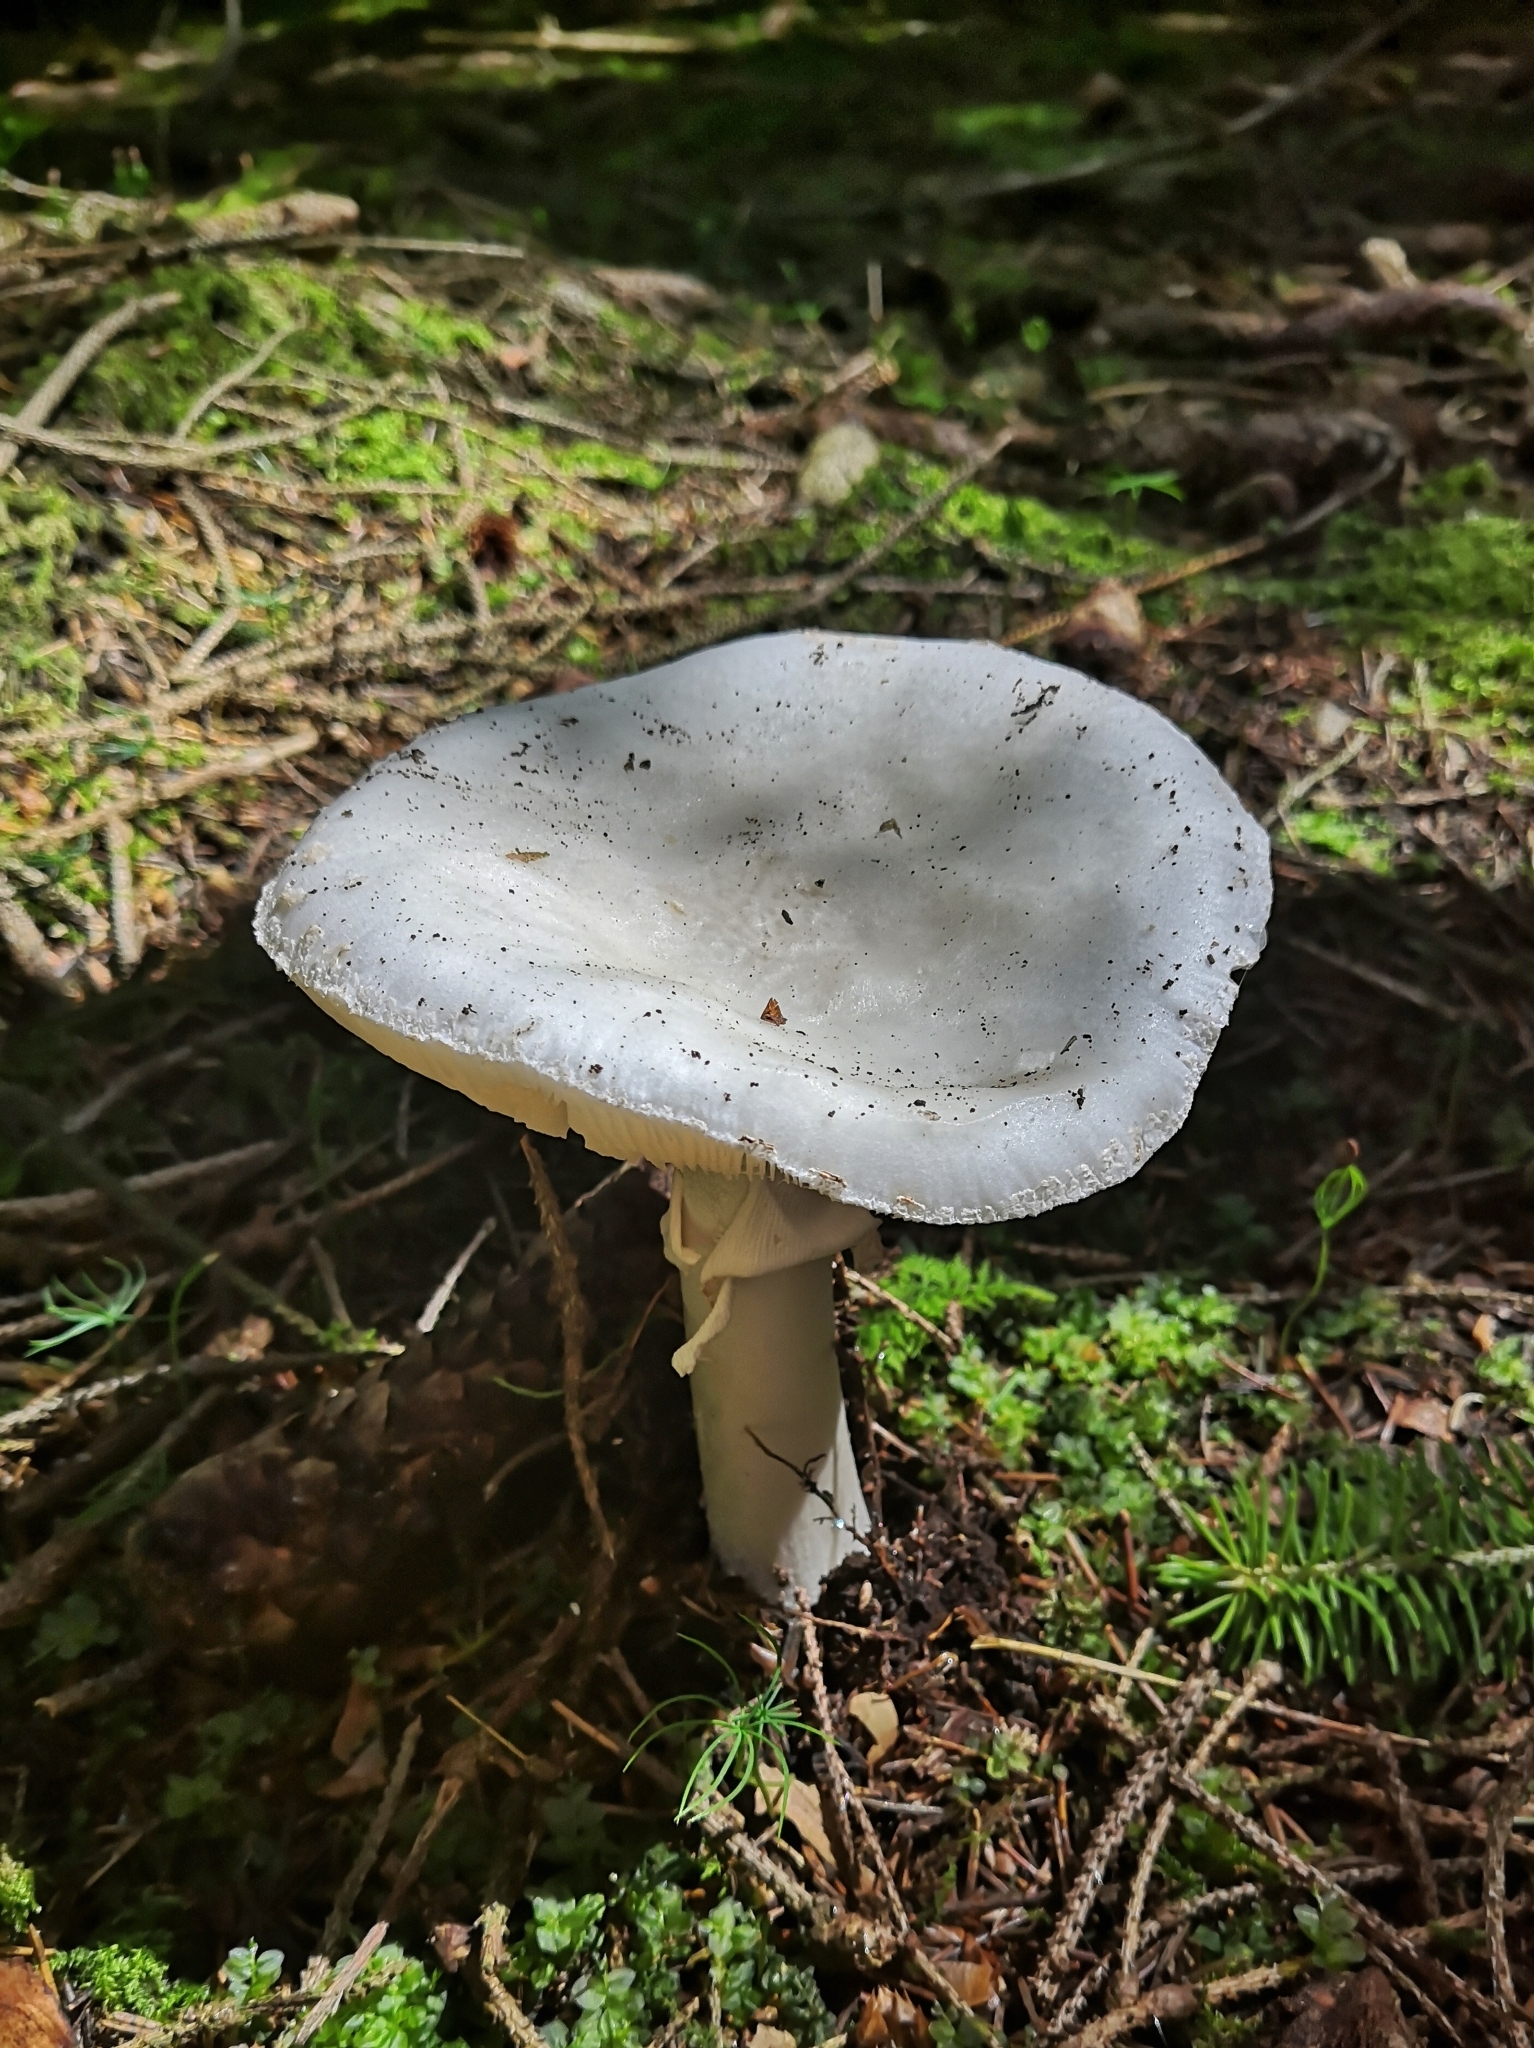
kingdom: Fungi
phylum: Basidiomycota
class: Agaricomycetes
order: Agaricales
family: Amanitaceae
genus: Amanita
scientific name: Amanita excelsa
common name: European false blusher
